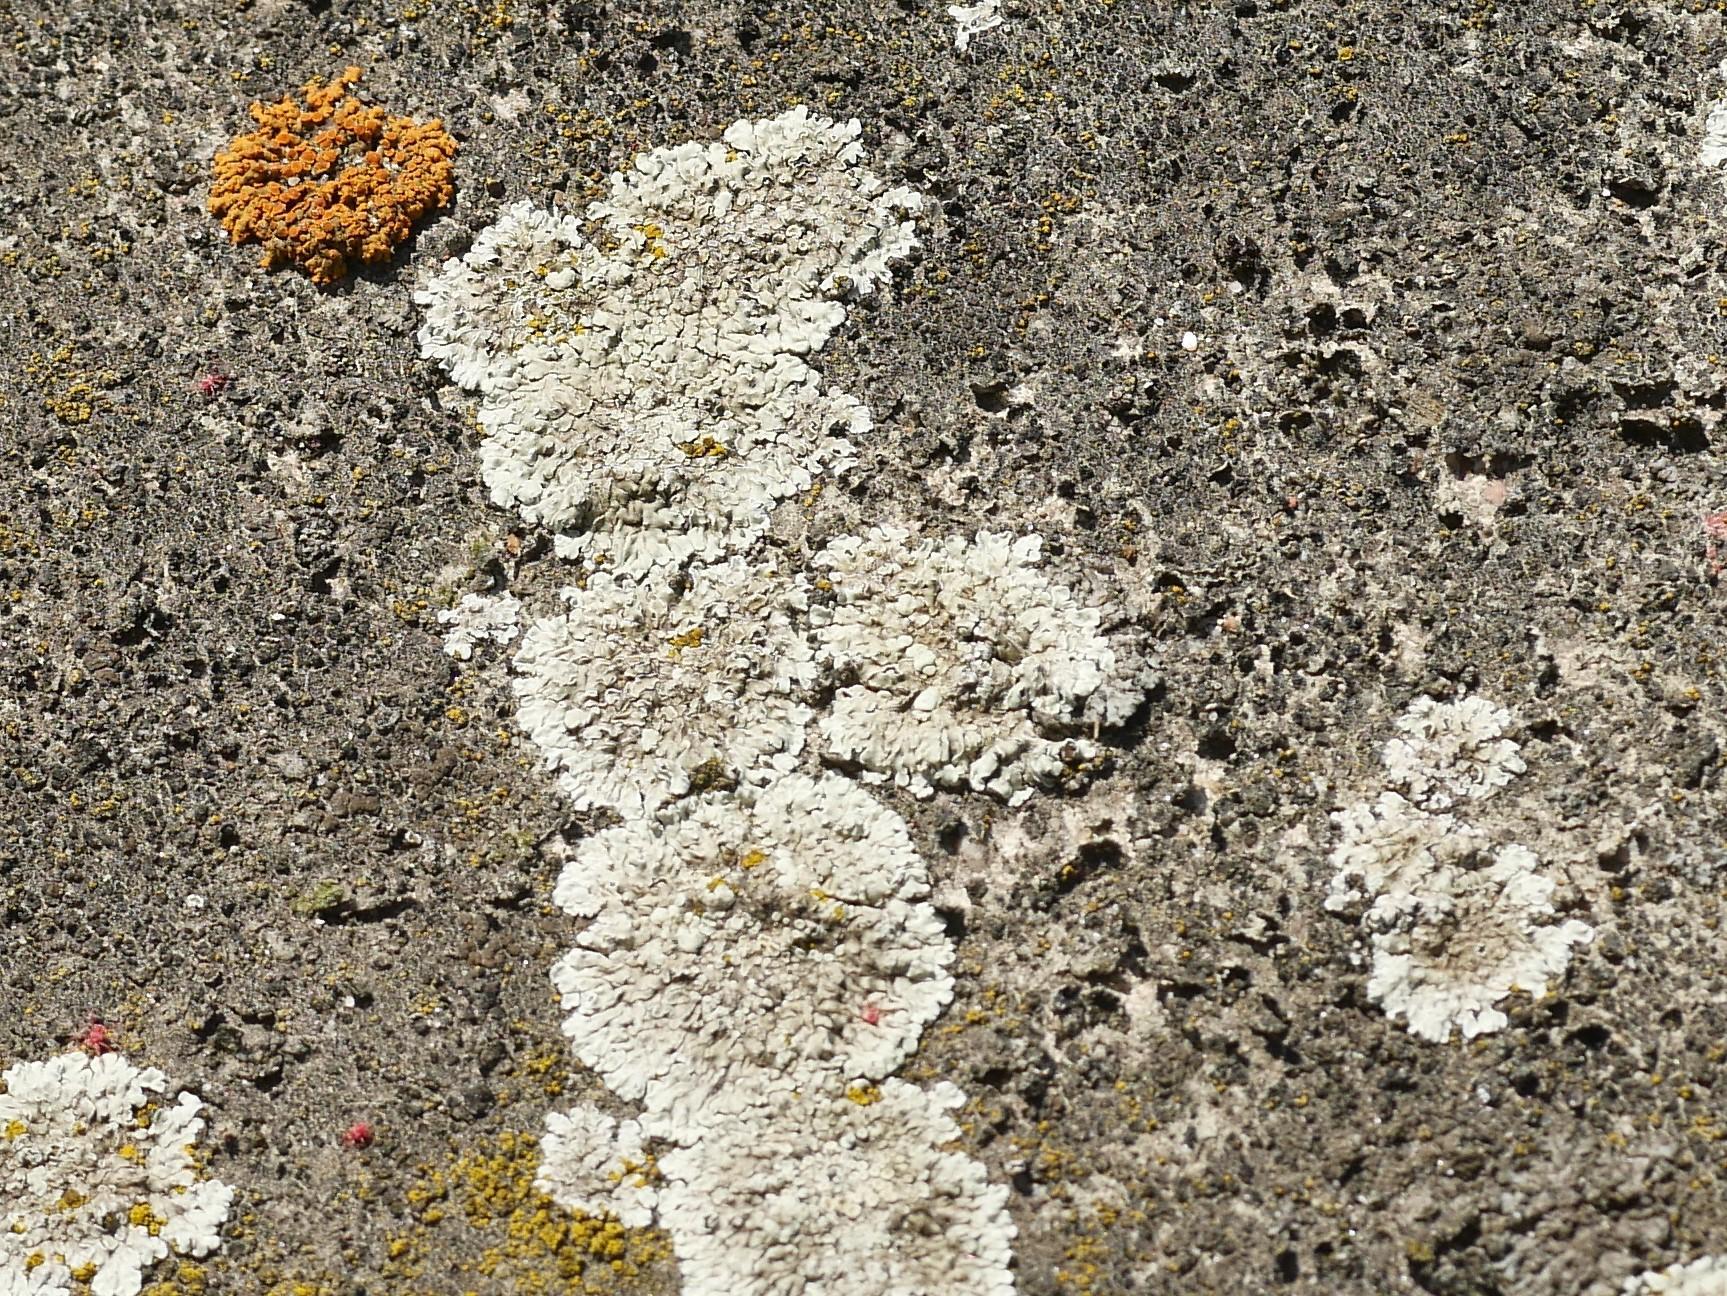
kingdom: Fungi
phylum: Ascomycota
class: Lecanoromycetes
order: Lecanorales
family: Lecanoraceae
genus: Protoparmeliopsis
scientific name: Protoparmeliopsis muralis
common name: Stonewall rim lichen
